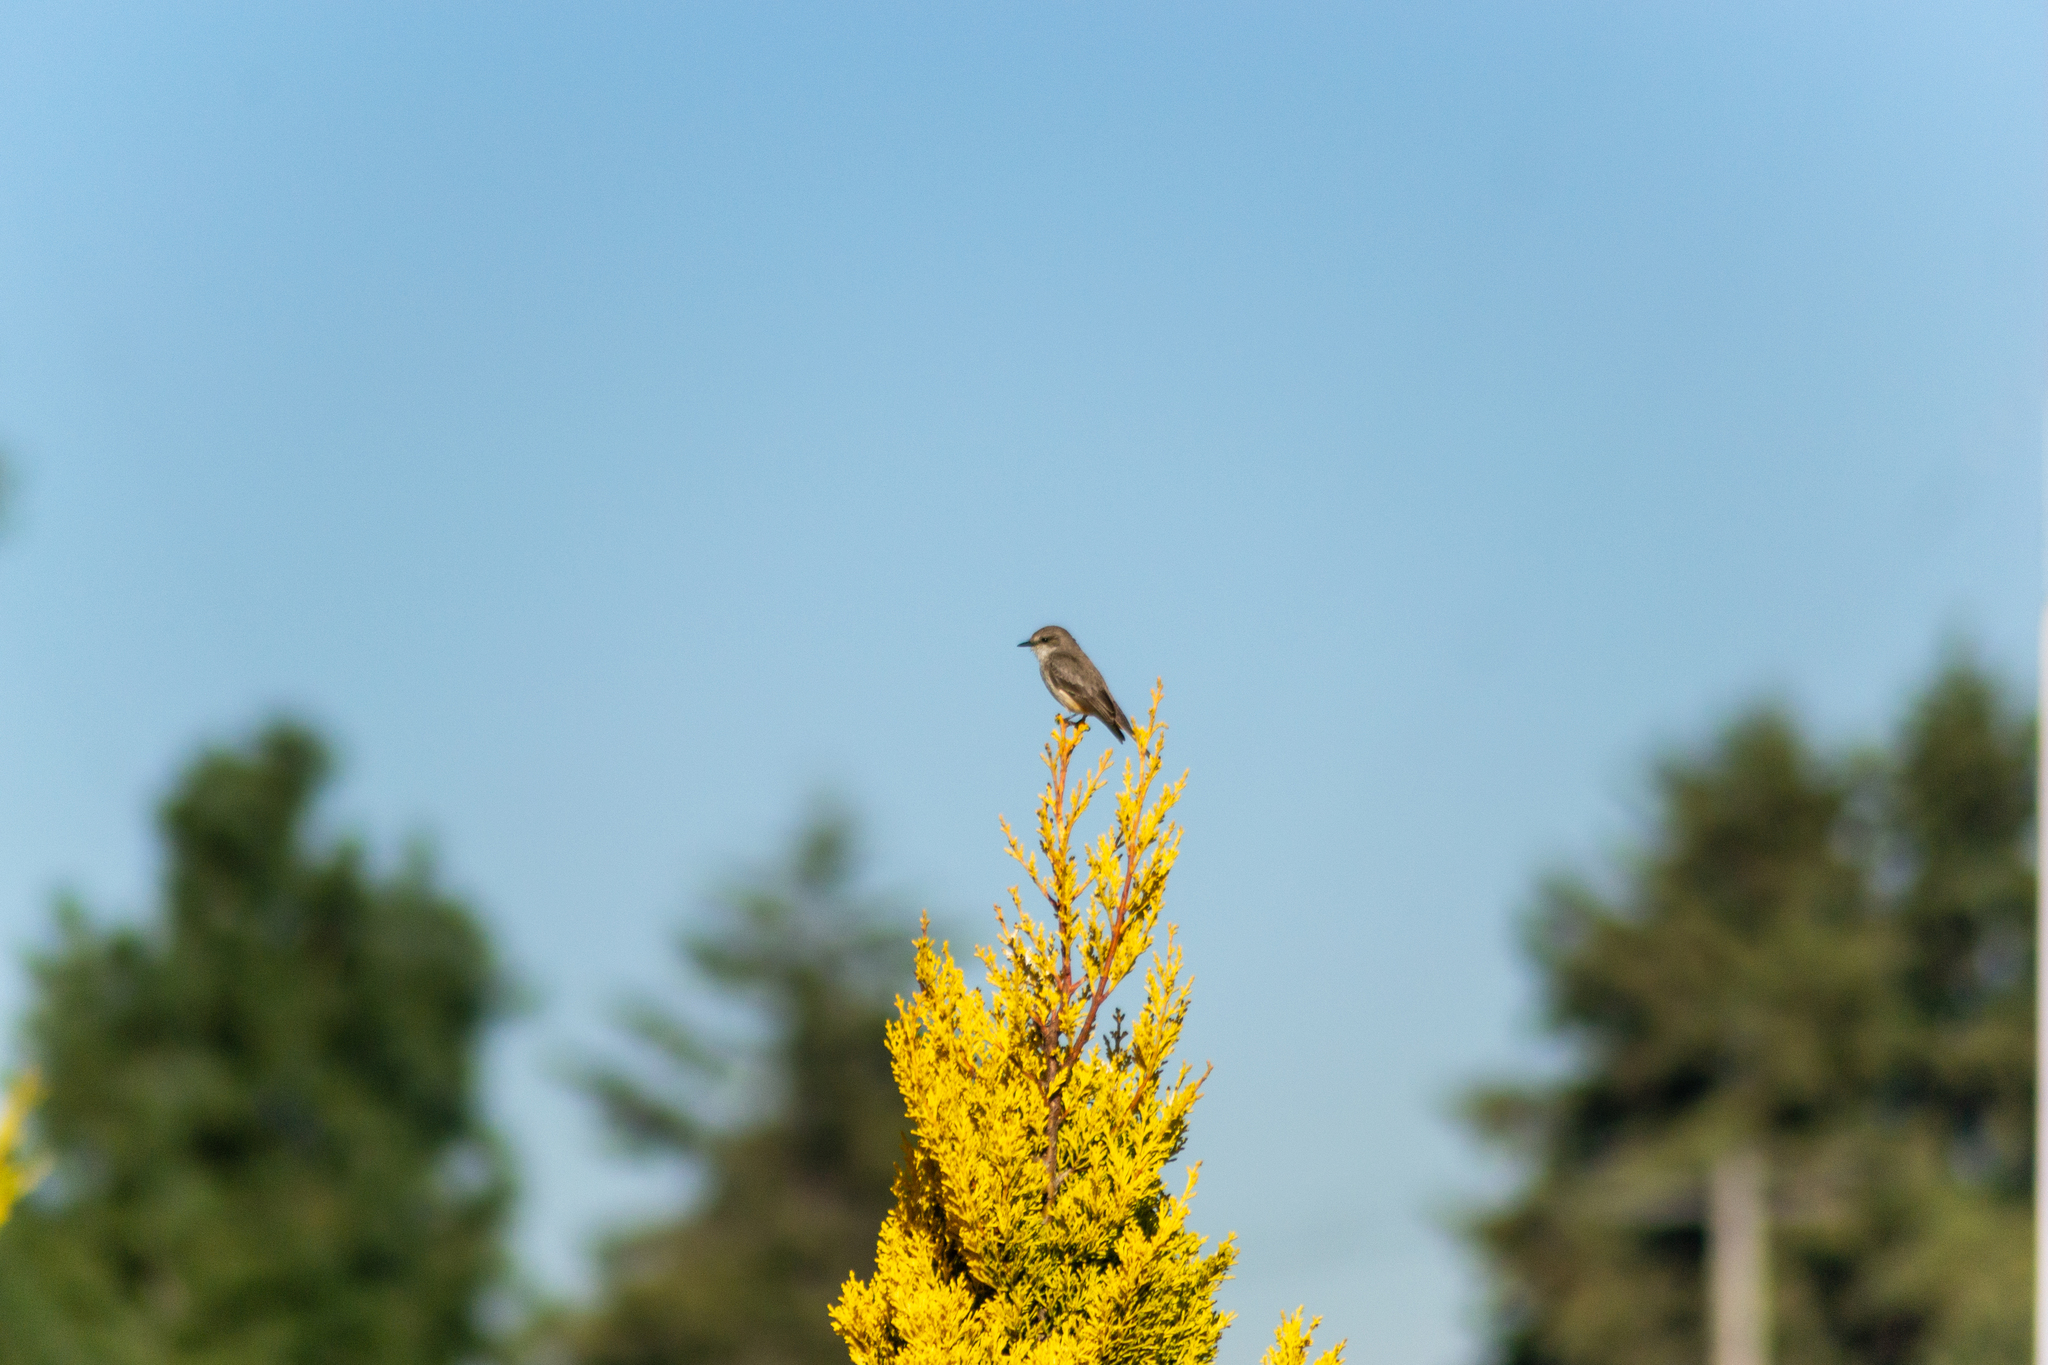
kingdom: Animalia
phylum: Chordata
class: Aves
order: Passeriformes
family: Tyrannidae
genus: Pyrocephalus
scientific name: Pyrocephalus rubinus
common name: Vermilion flycatcher
